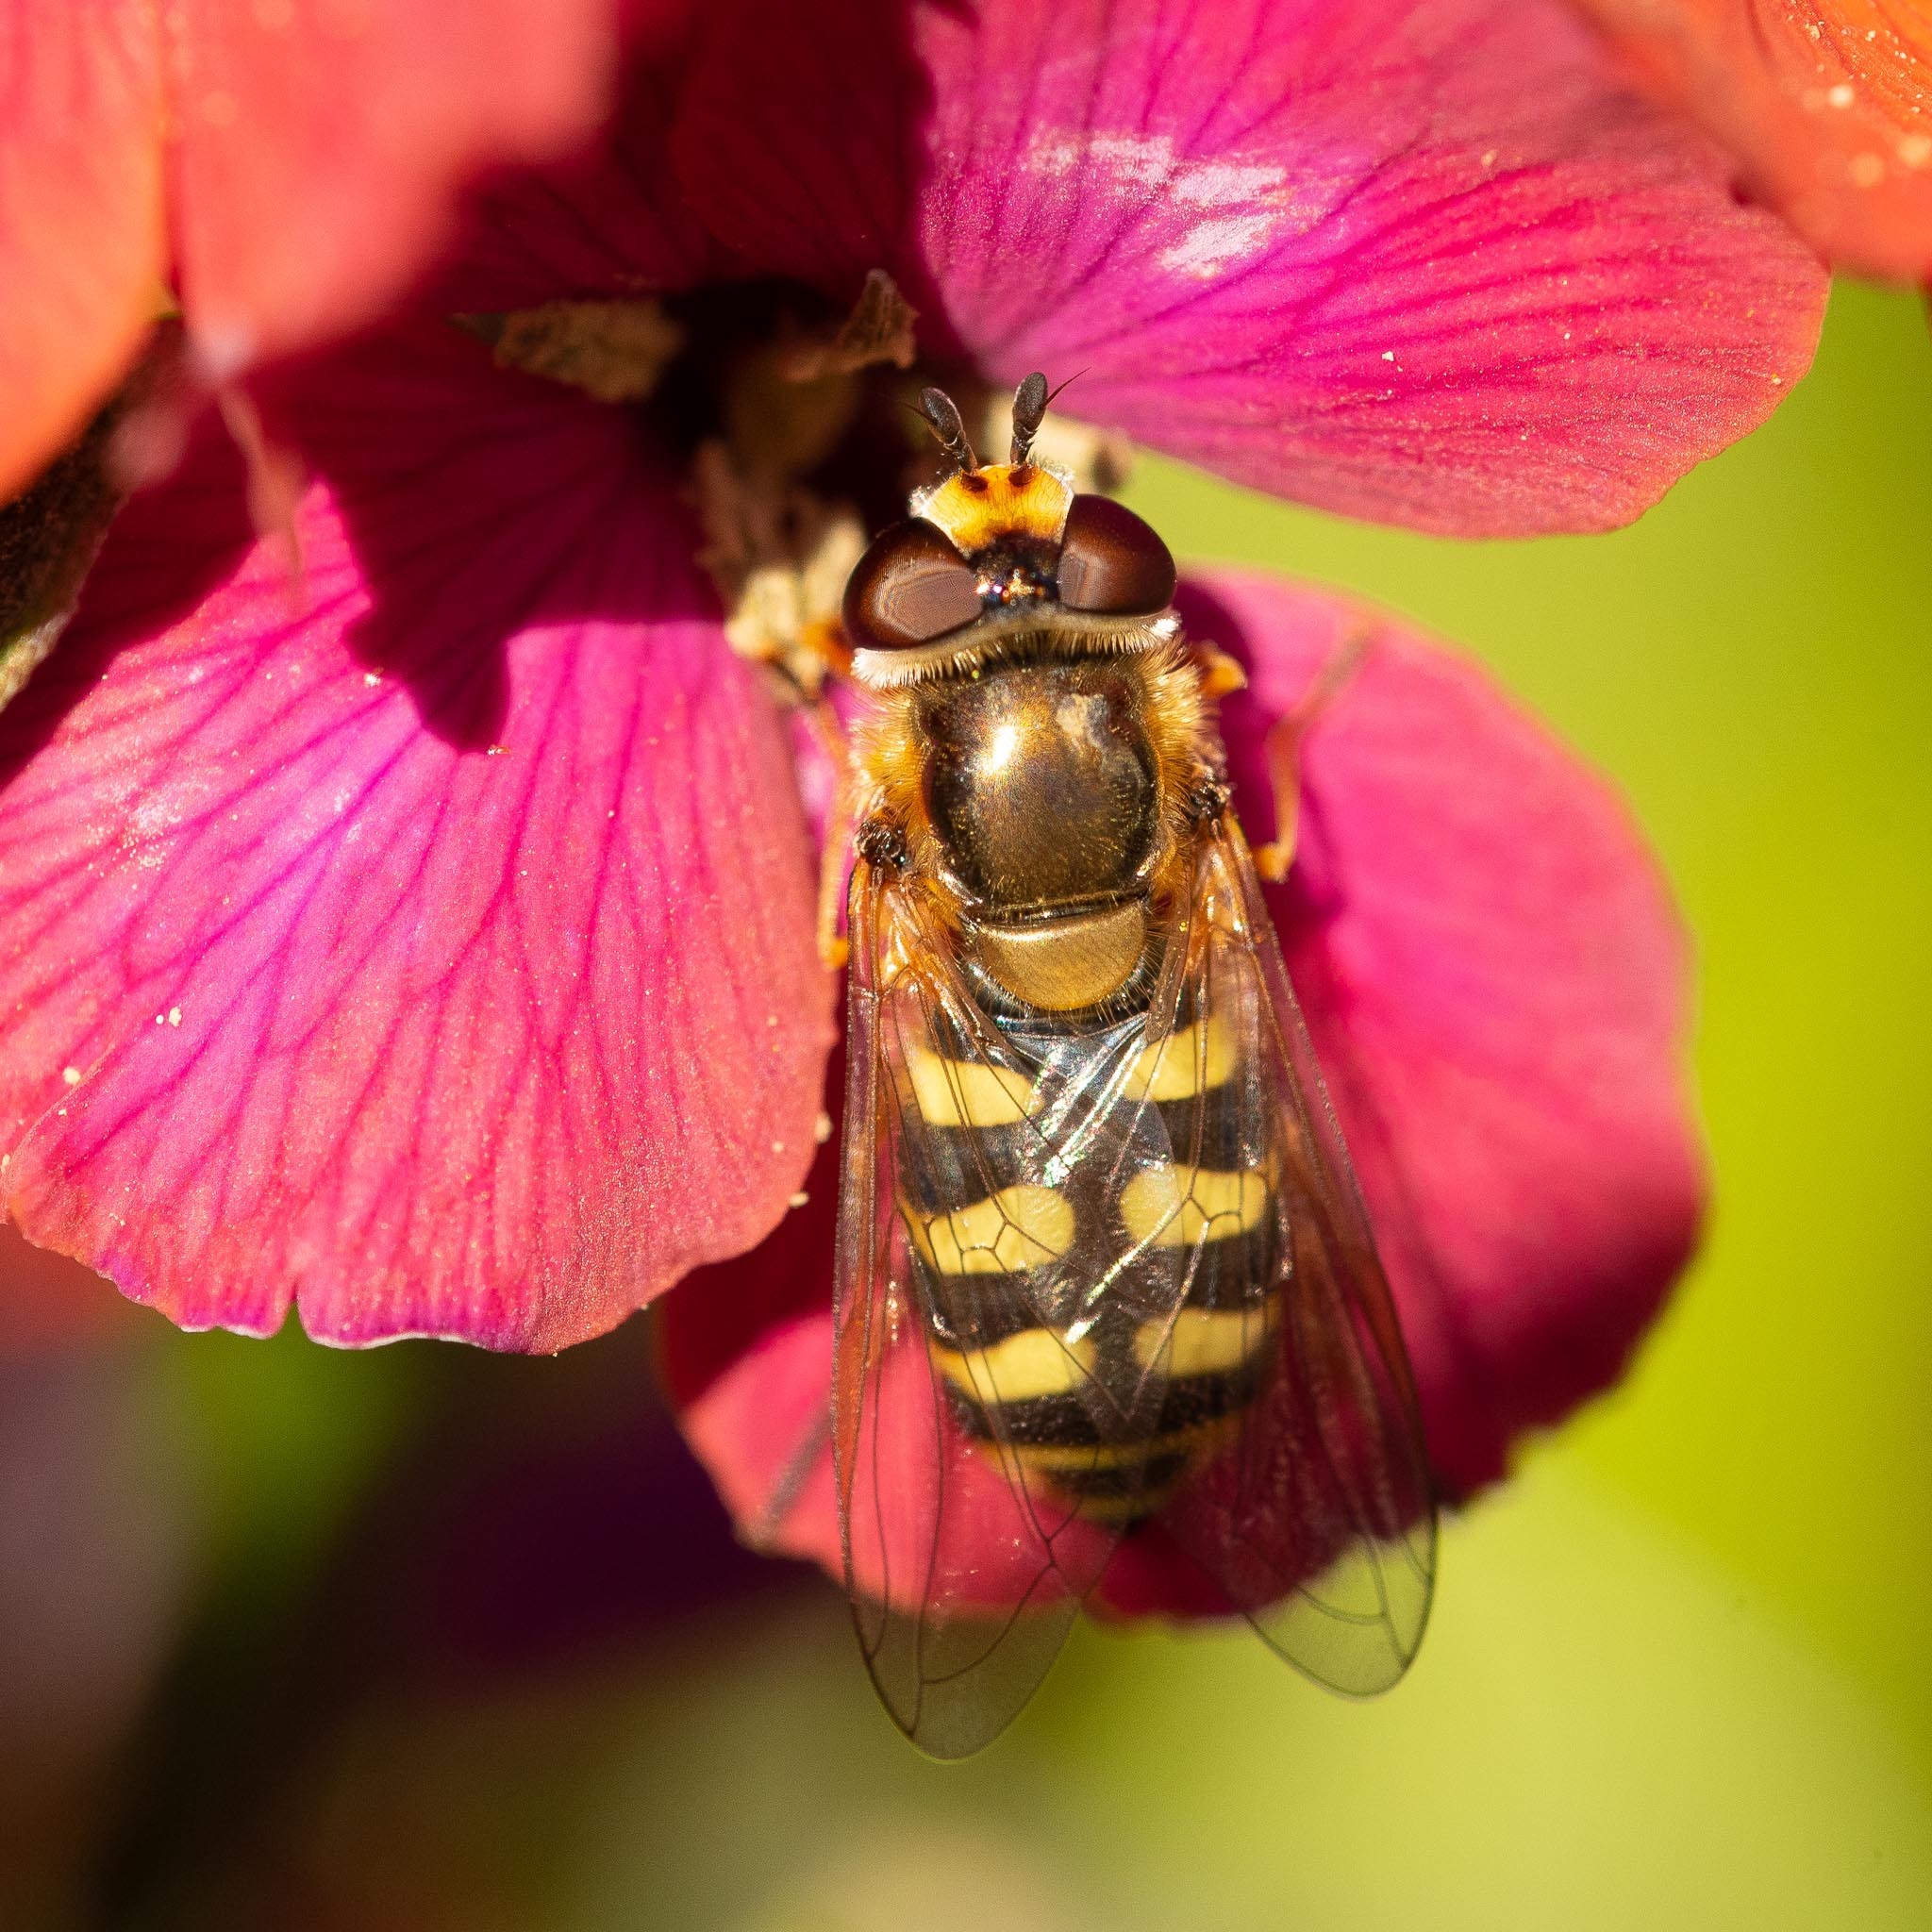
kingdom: Animalia
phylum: Arthropoda
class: Insecta
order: Diptera
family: Syrphidae
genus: Eupeodes
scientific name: Eupeodes corollae
